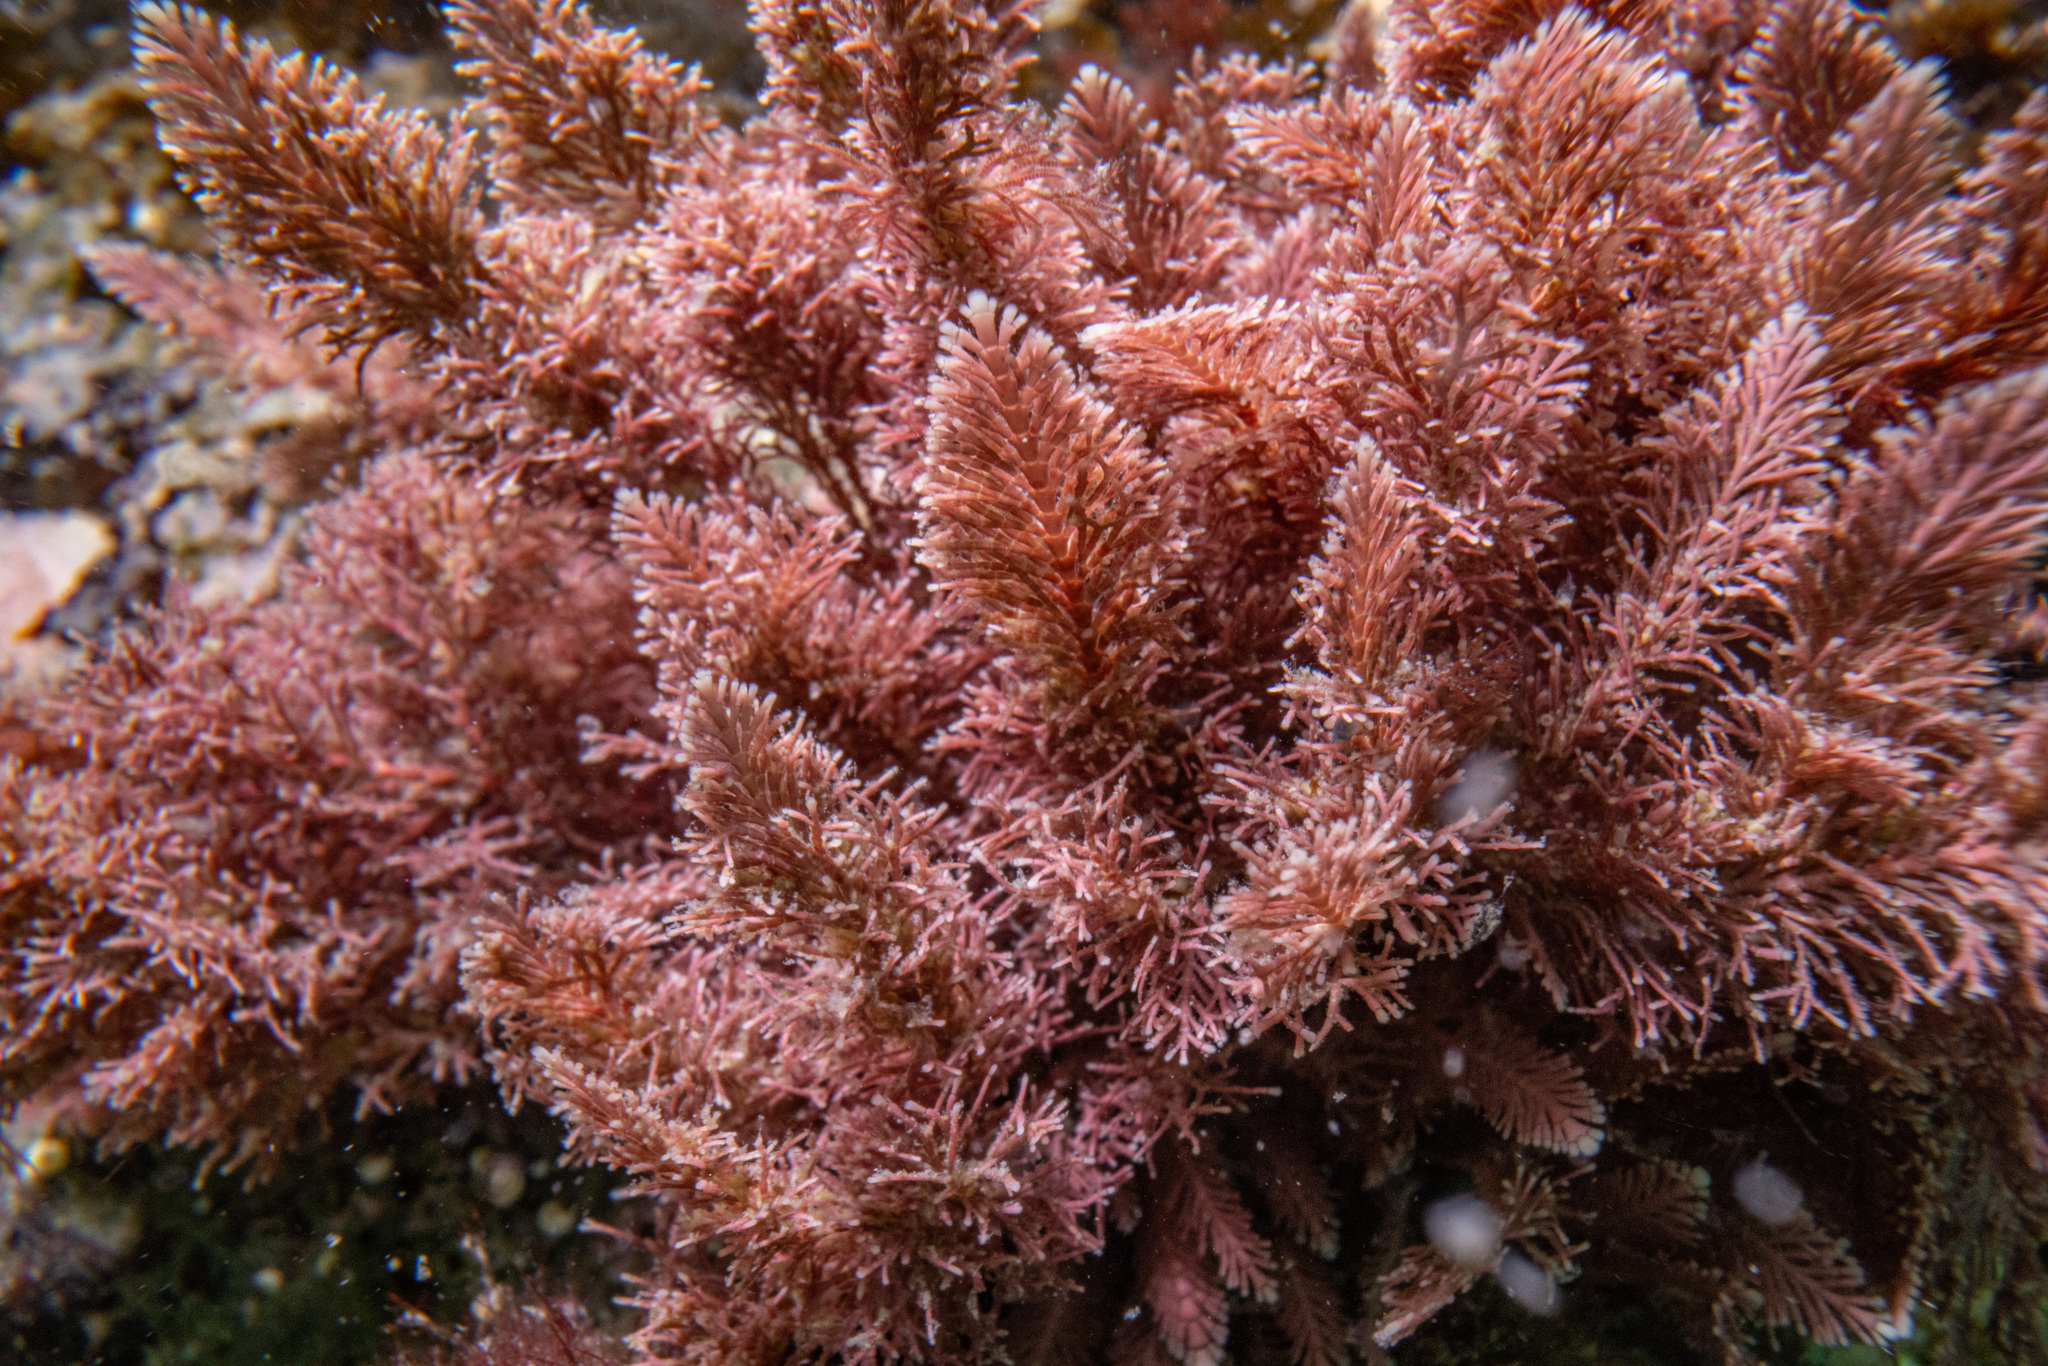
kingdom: Plantae
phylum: Rhodophyta
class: Florideophyceae
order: Corallinales
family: Corallinaceae
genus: Jania
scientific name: Jania rosea
